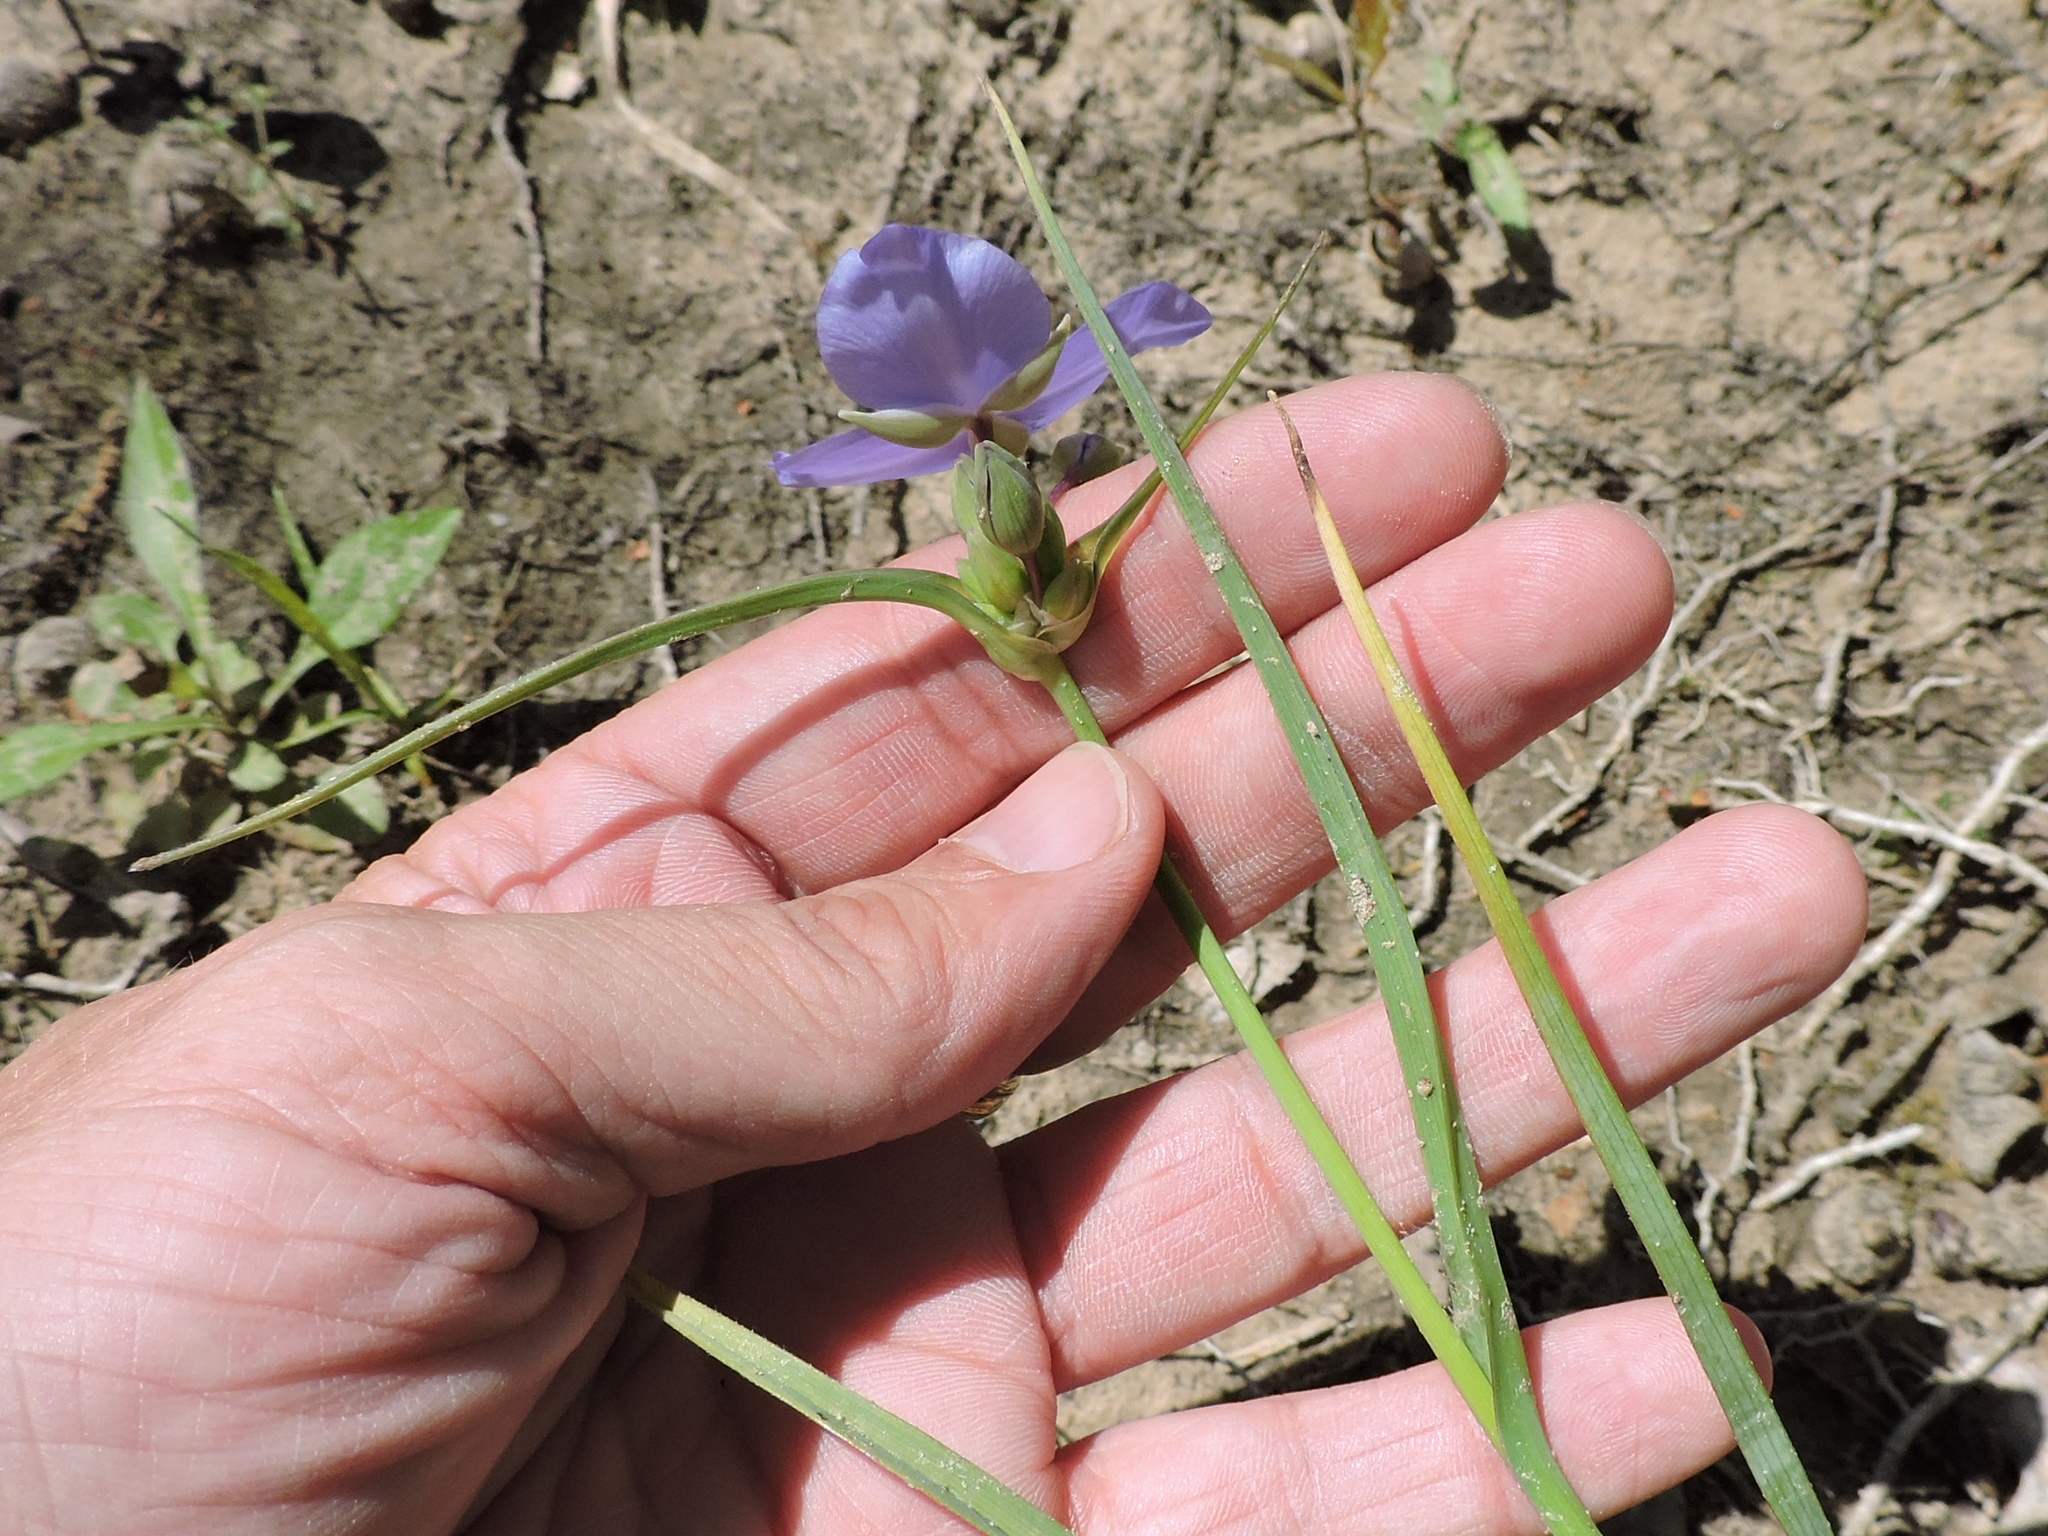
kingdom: Plantae
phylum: Tracheophyta
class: Liliopsida
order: Commelinales
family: Commelinaceae
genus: Tradescantia
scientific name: Tradescantia occidentalis
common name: Prairie spiderwort
